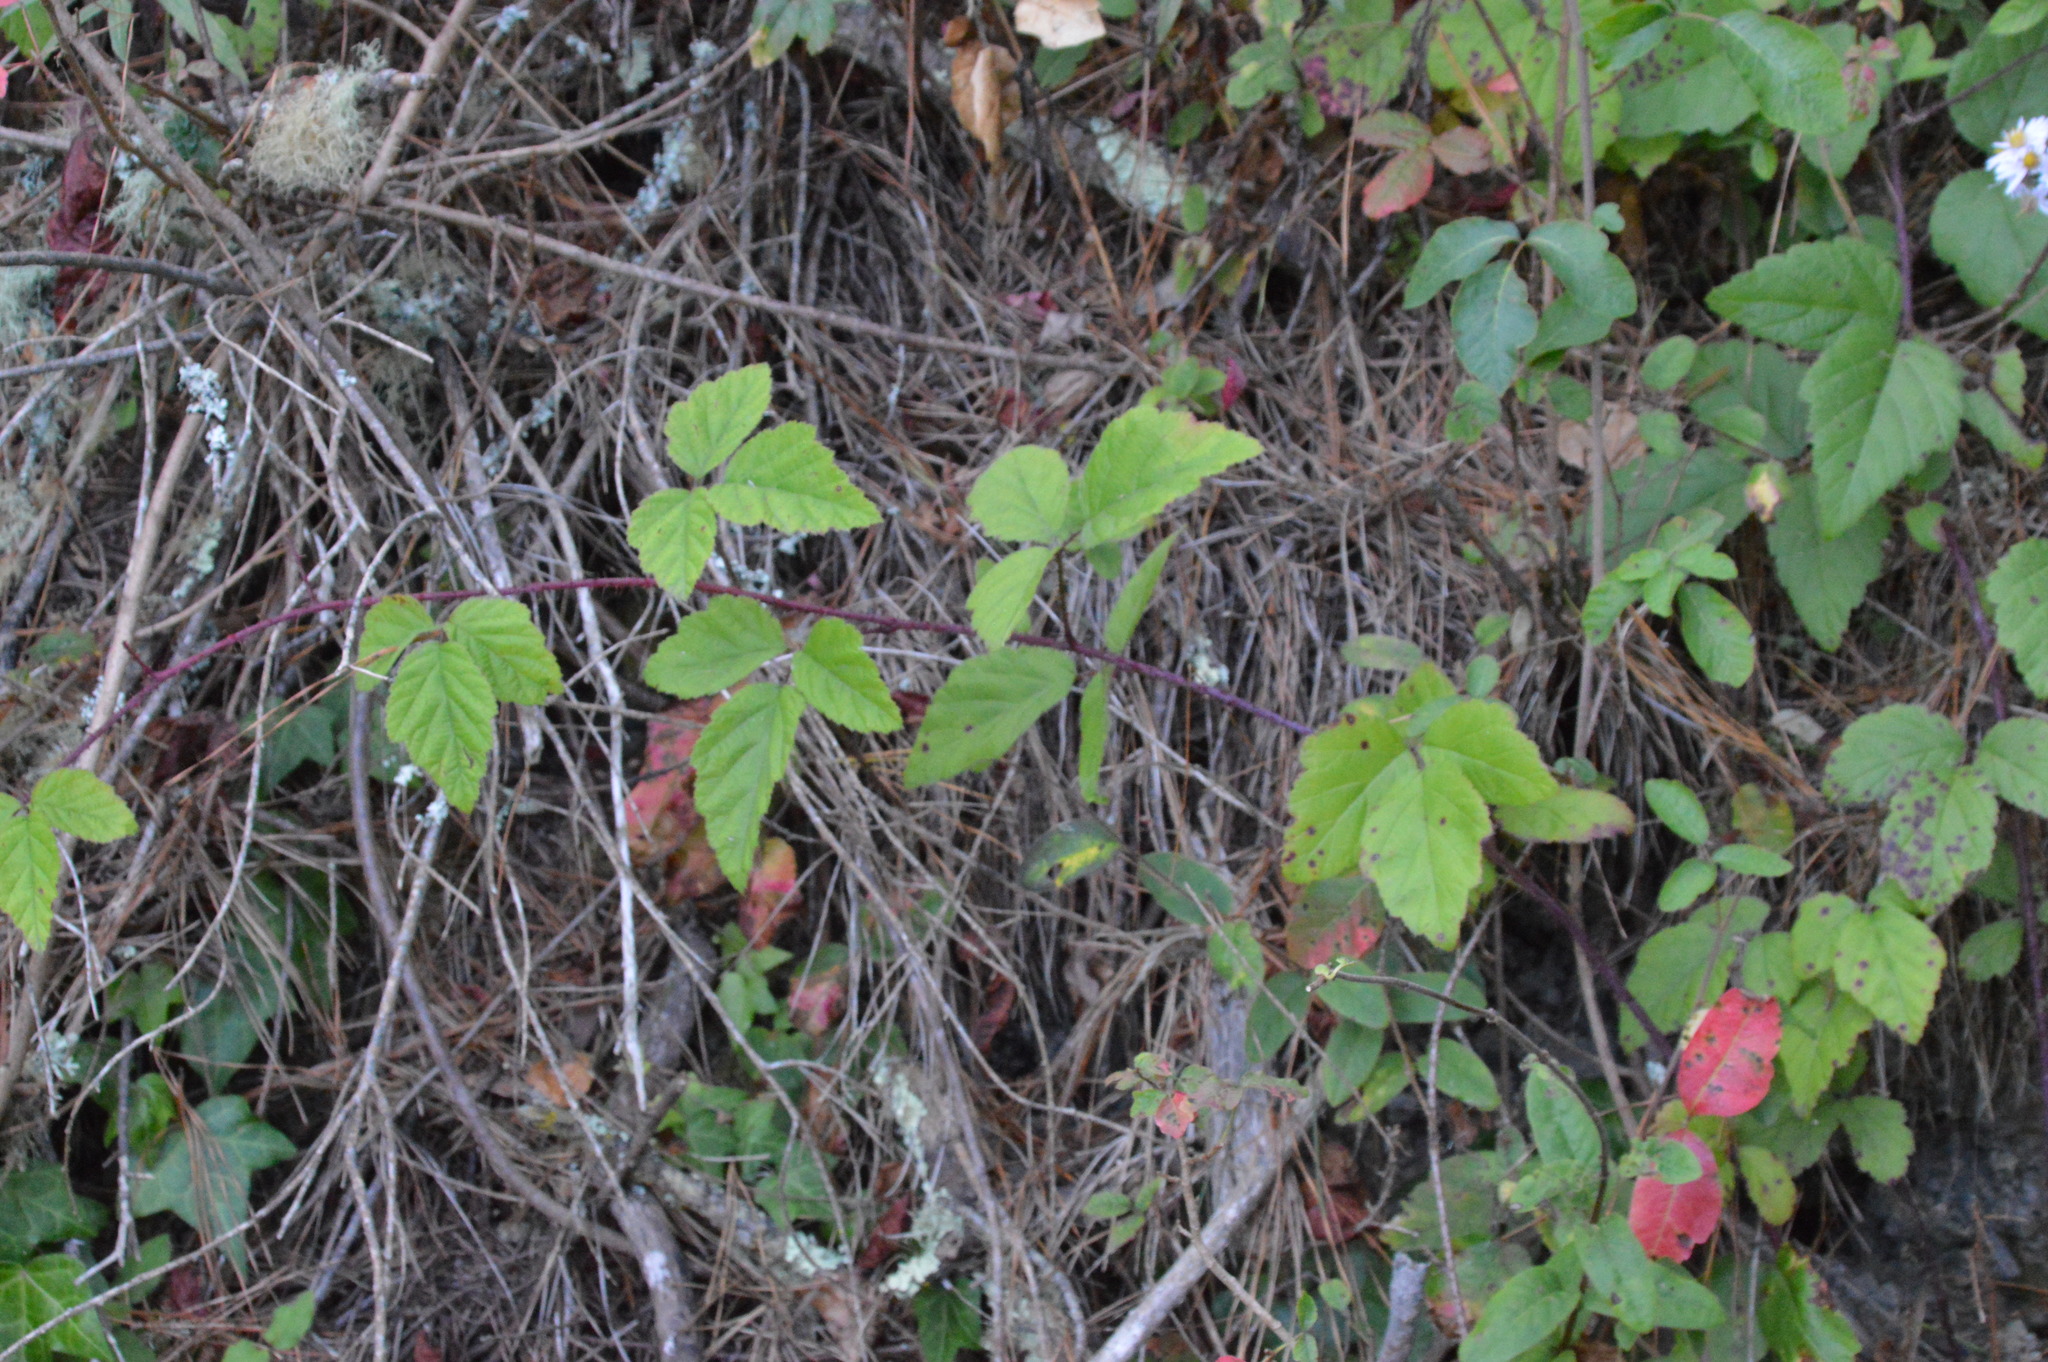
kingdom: Plantae
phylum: Tracheophyta
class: Magnoliopsida
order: Rosales
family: Rosaceae
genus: Rubus
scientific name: Rubus ursinus
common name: Pacific blackberry
